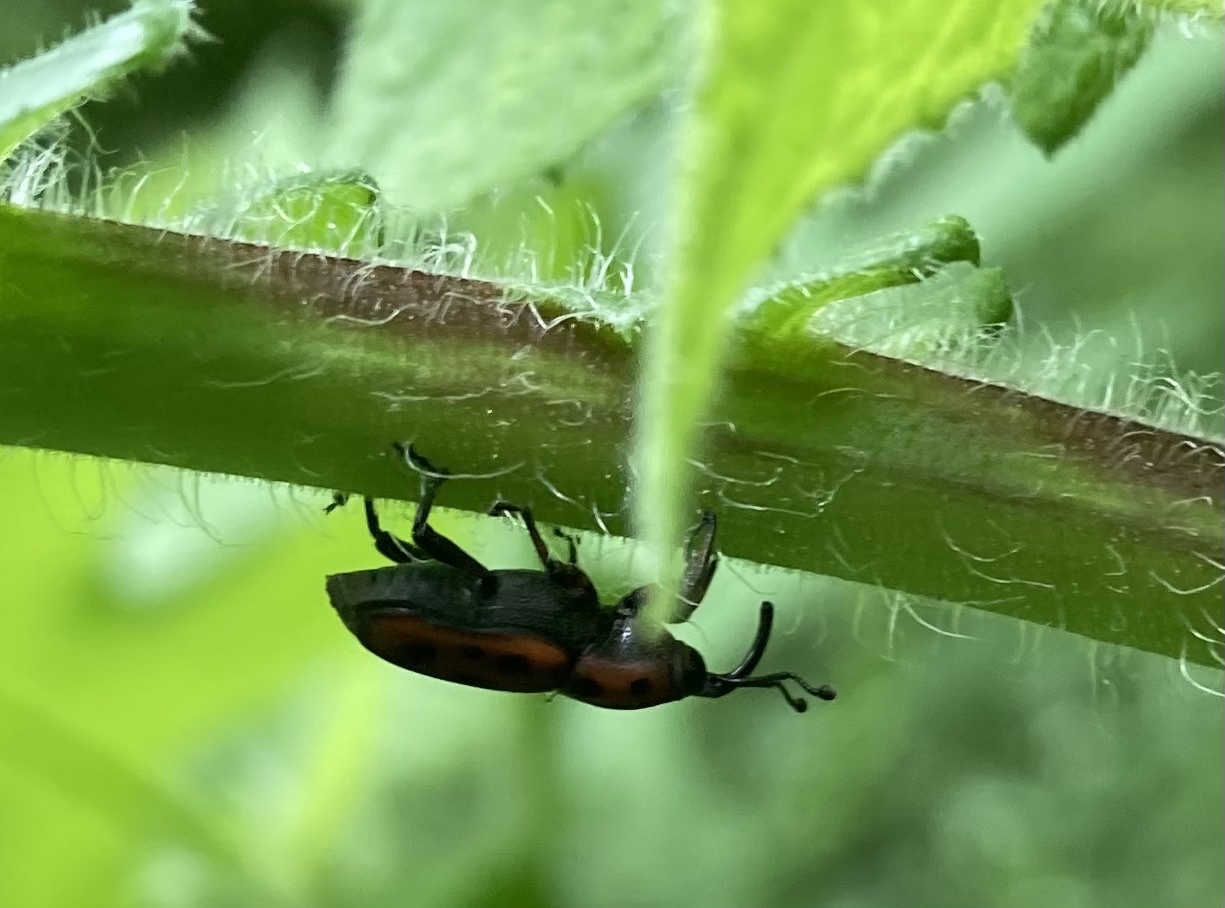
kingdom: Animalia
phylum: Arthropoda
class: Insecta
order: Coleoptera
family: Dryophthoridae
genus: Rhodobaenus
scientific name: Rhodobaenus tredecimpunctatus
